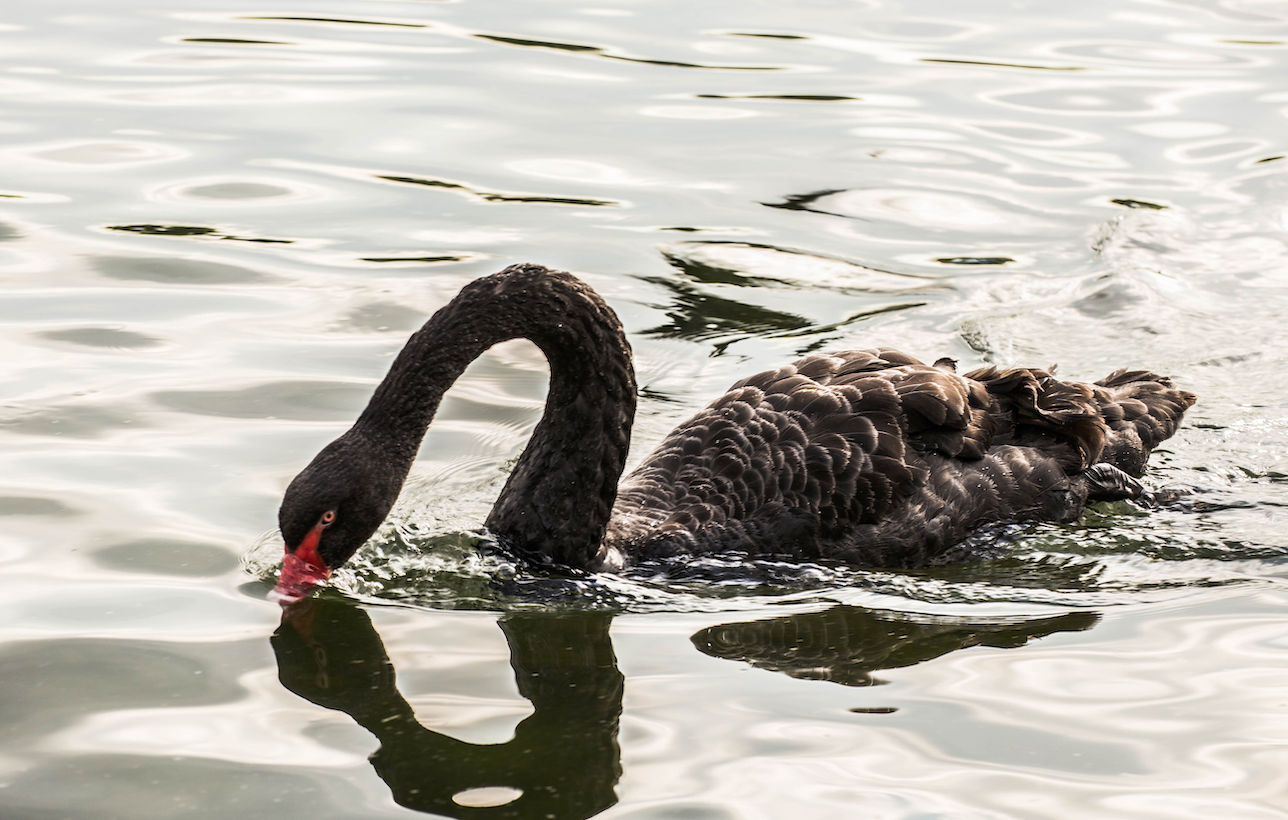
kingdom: Animalia
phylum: Chordata
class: Aves
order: Anseriformes
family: Anatidae
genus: Cygnus
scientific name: Cygnus atratus
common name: Black swan
